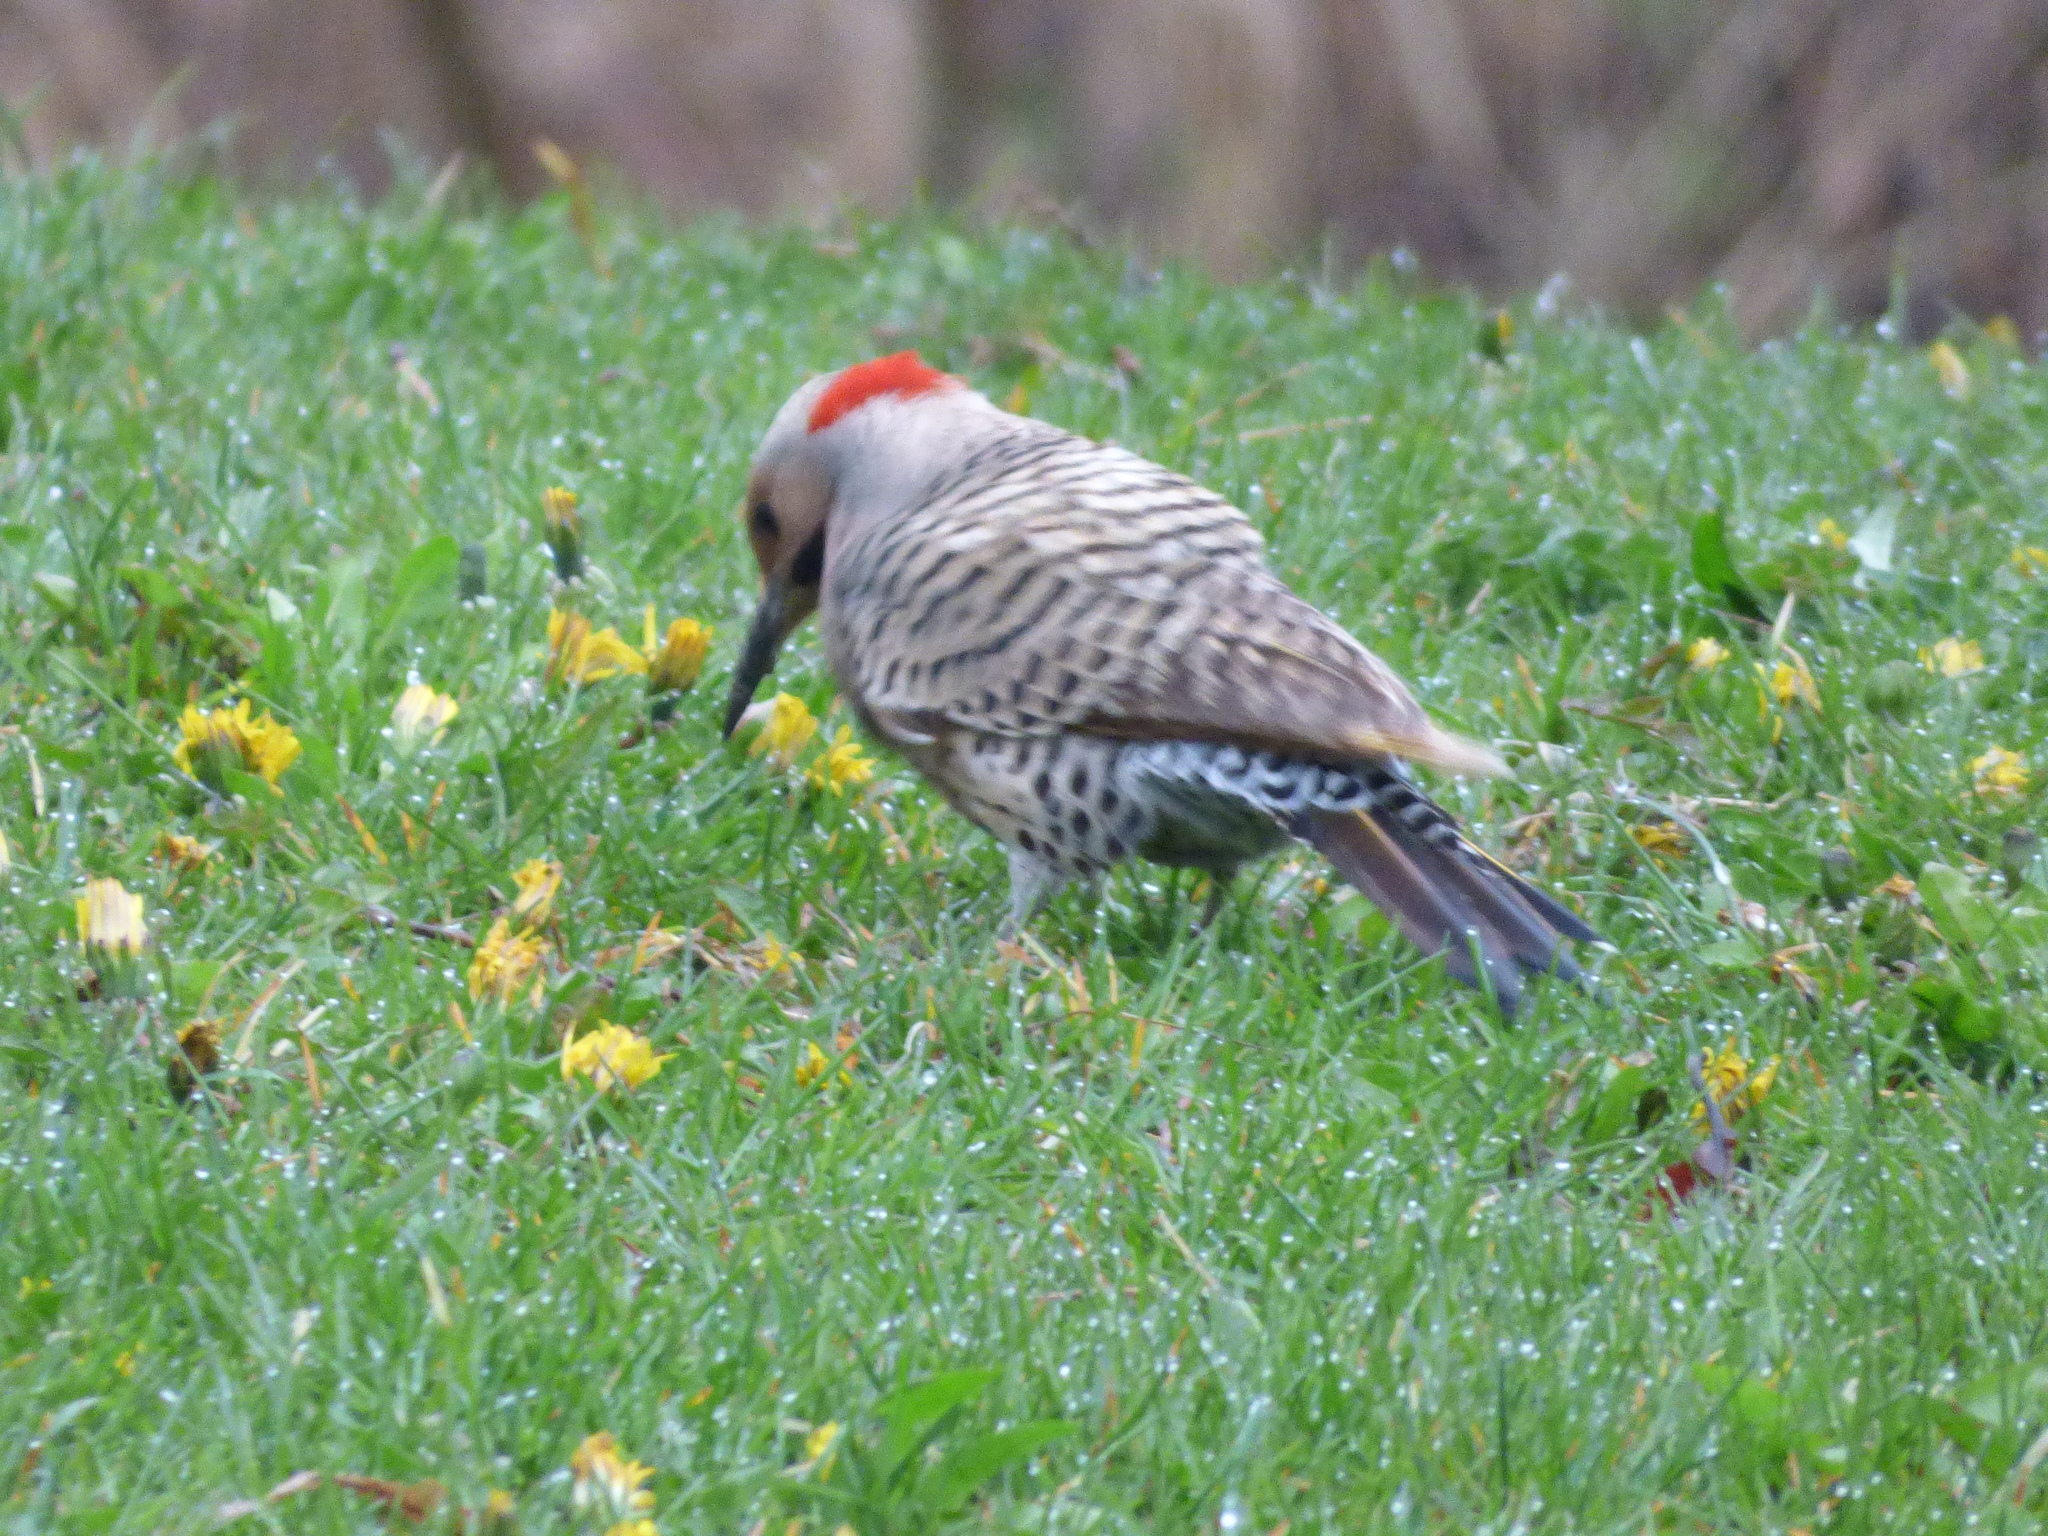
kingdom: Animalia
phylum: Chordata
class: Aves
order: Piciformes
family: Picidae
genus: Colaptes
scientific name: Colaptes auratus
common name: Northern flicker
